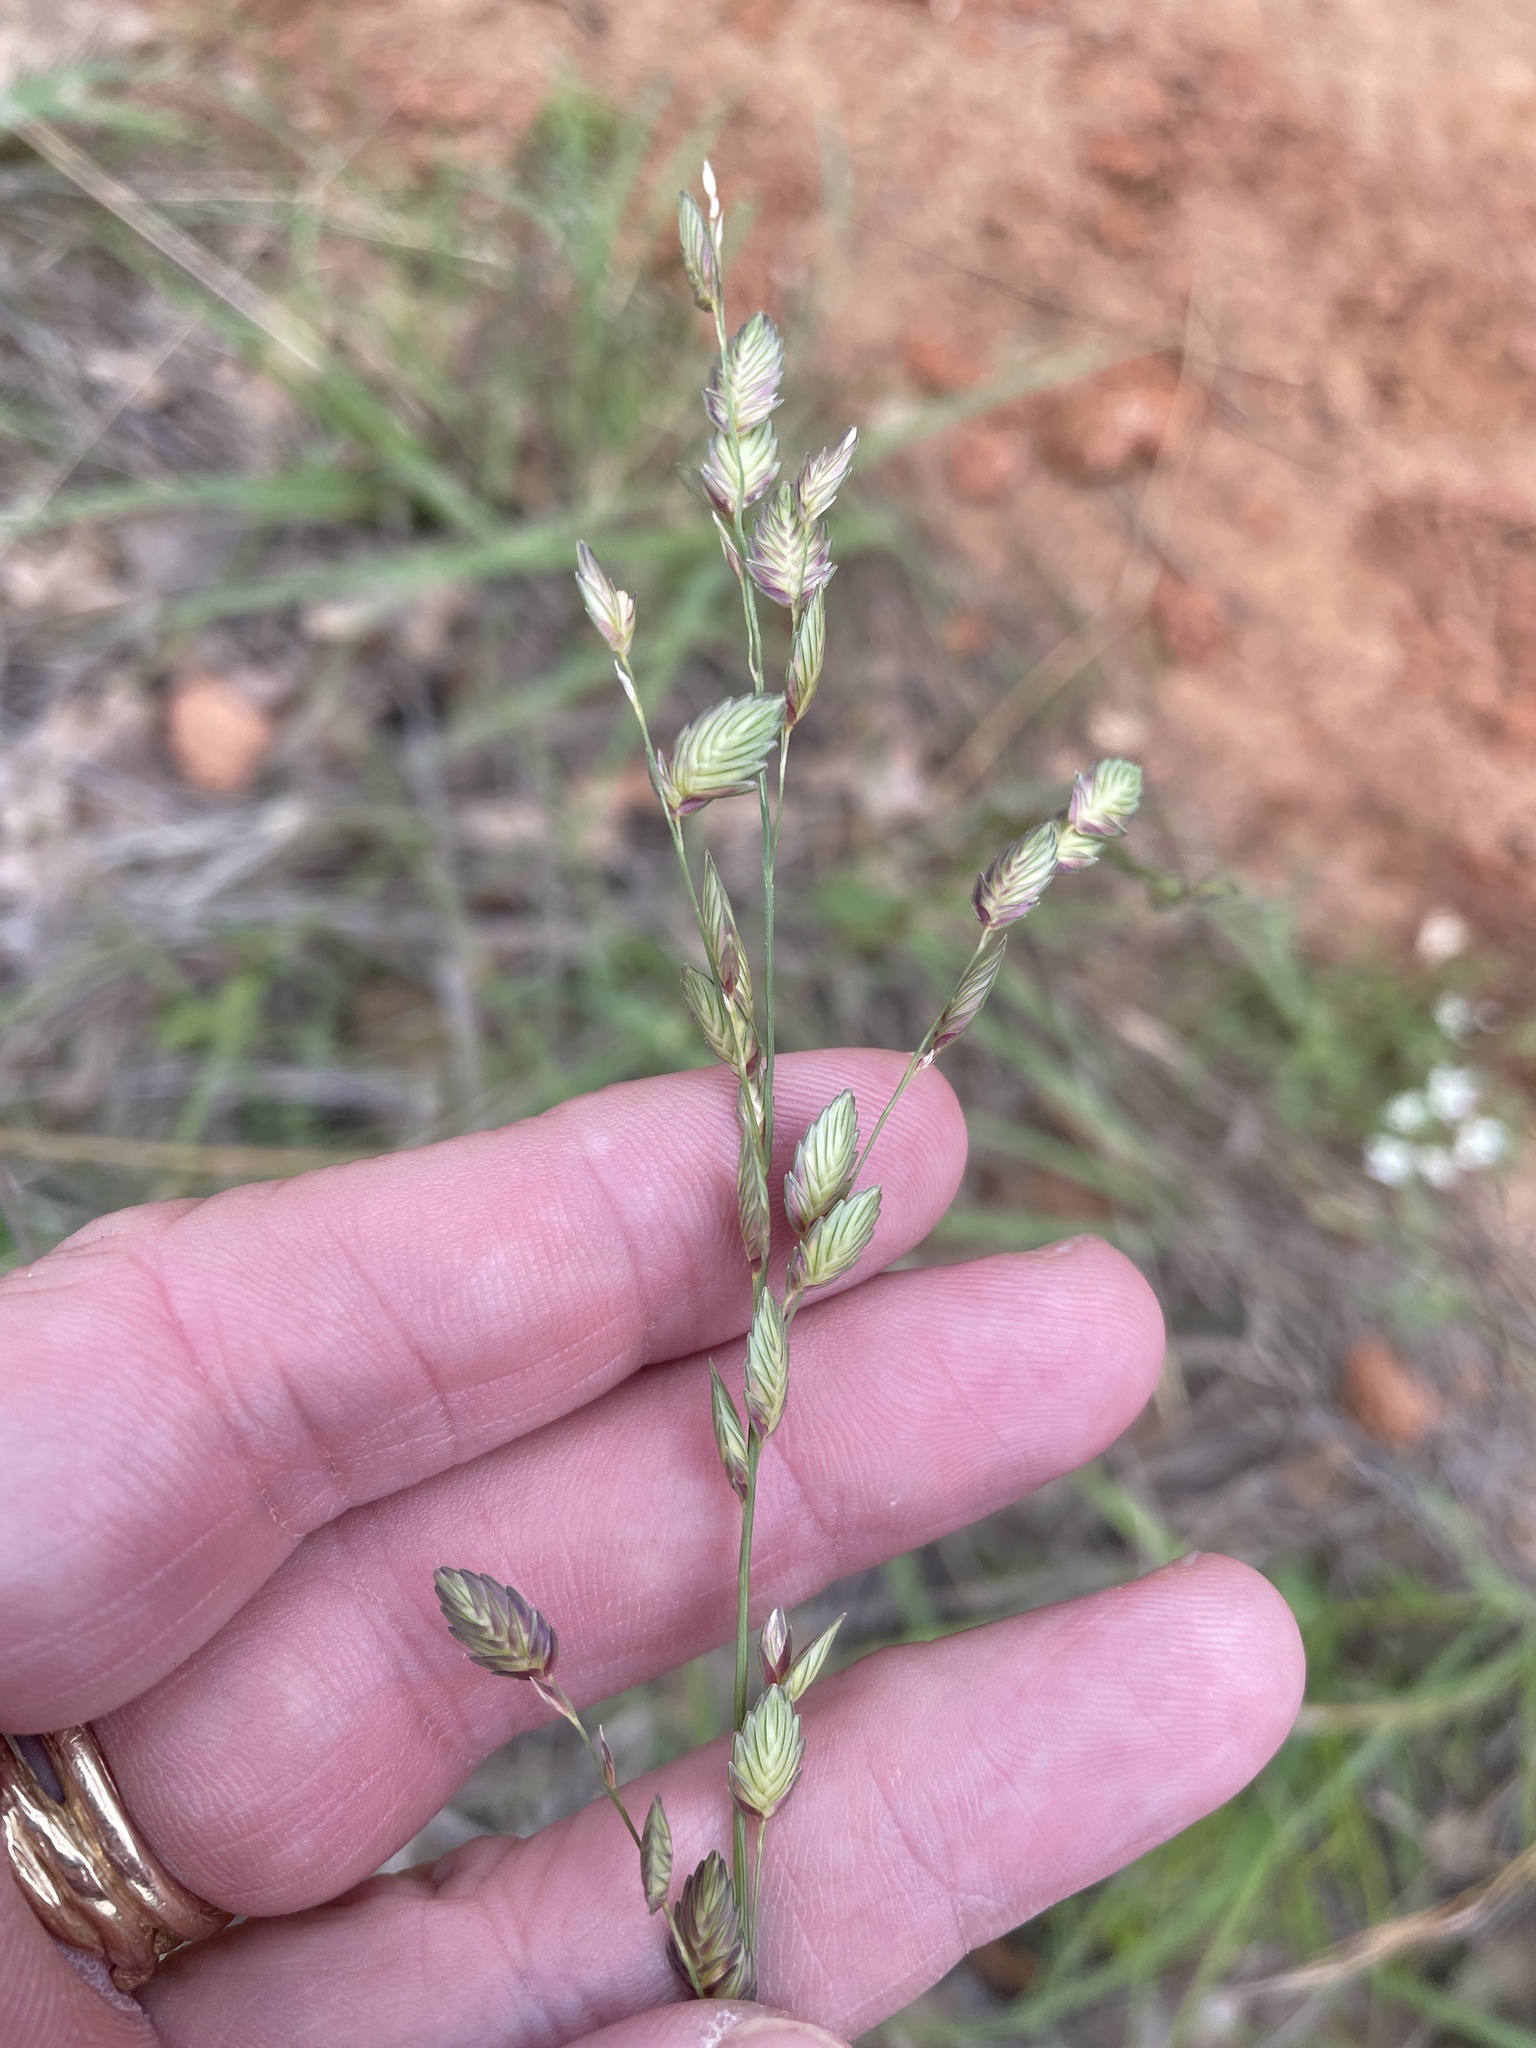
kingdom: Plantae
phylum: Tracheophyta
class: Liliopsida
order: Poales
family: Poaceae
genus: Eragrostis
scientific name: Eragrostis superba
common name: Wilman lovegrass
